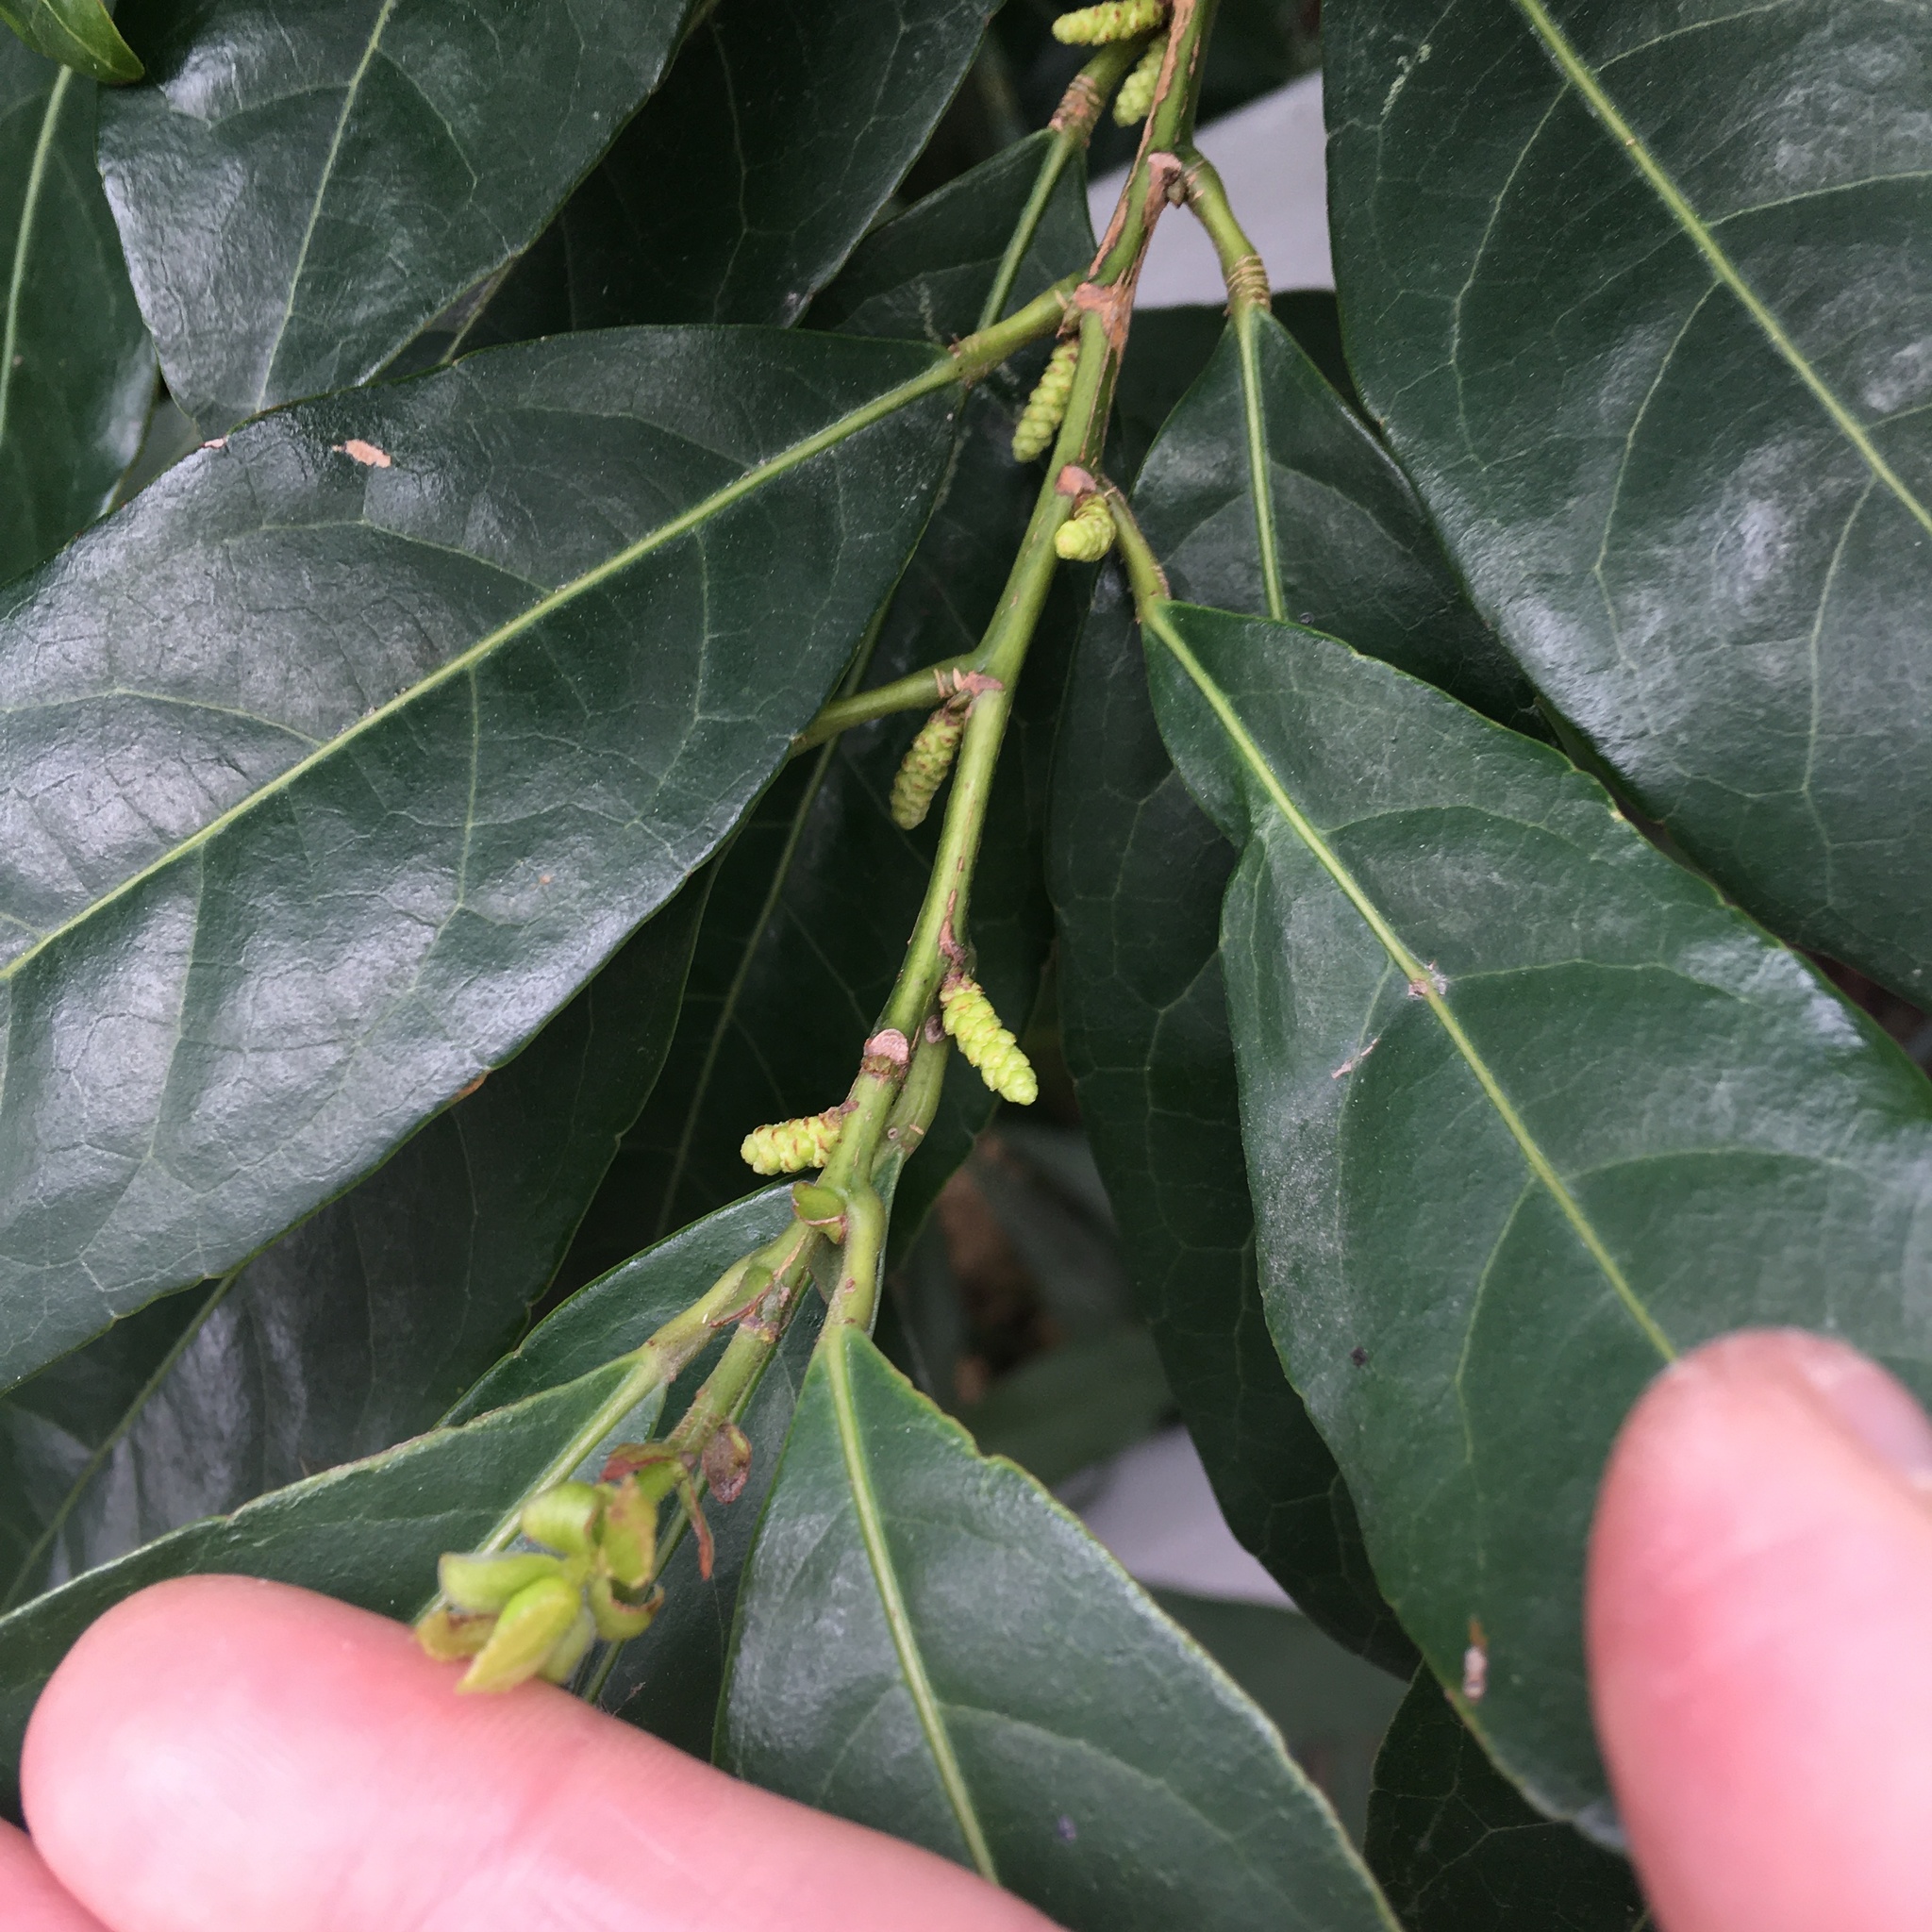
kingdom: Plantae
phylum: Tracheophyta
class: Magnoliopsida
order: Malpighiales
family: Phyllanthaceae
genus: Aporosa
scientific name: Aporosa octandra
